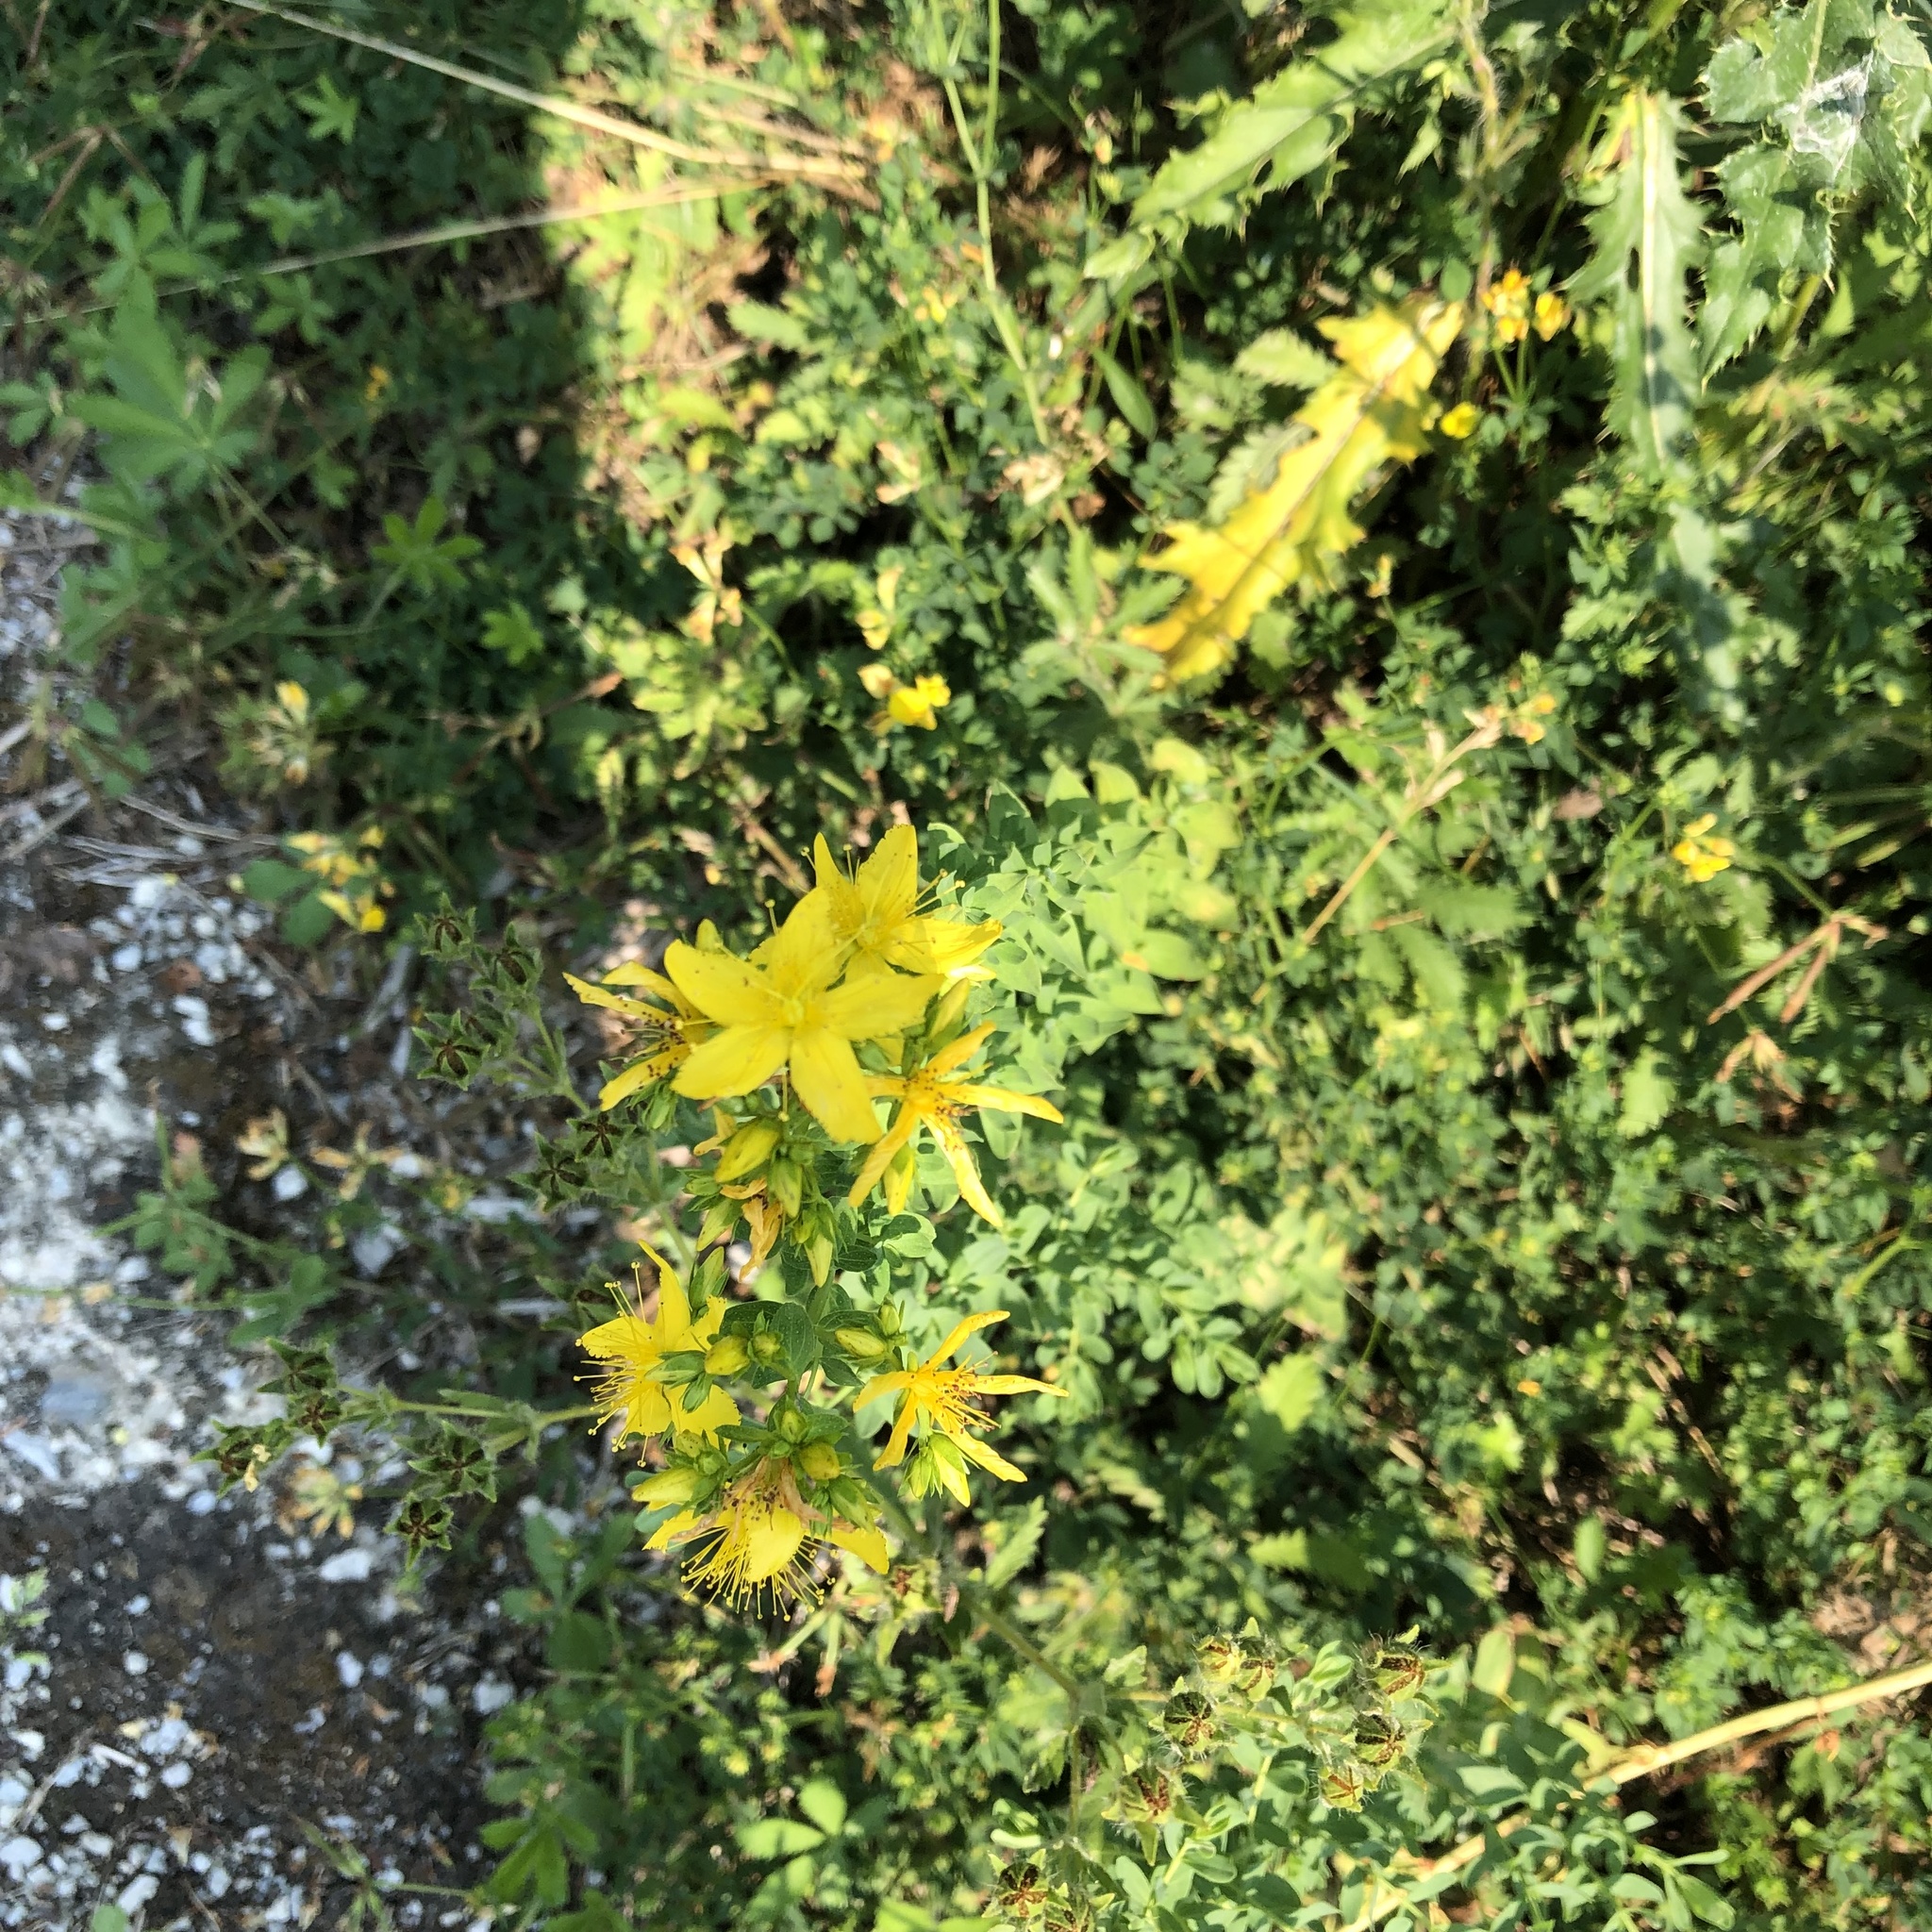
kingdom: Plantae
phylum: Tracheophyta
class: Magnoliopsida
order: Malpighiales
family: Hypericaceae
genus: Hypericum
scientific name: Hypericum perforatum
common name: Common st. johnswort
